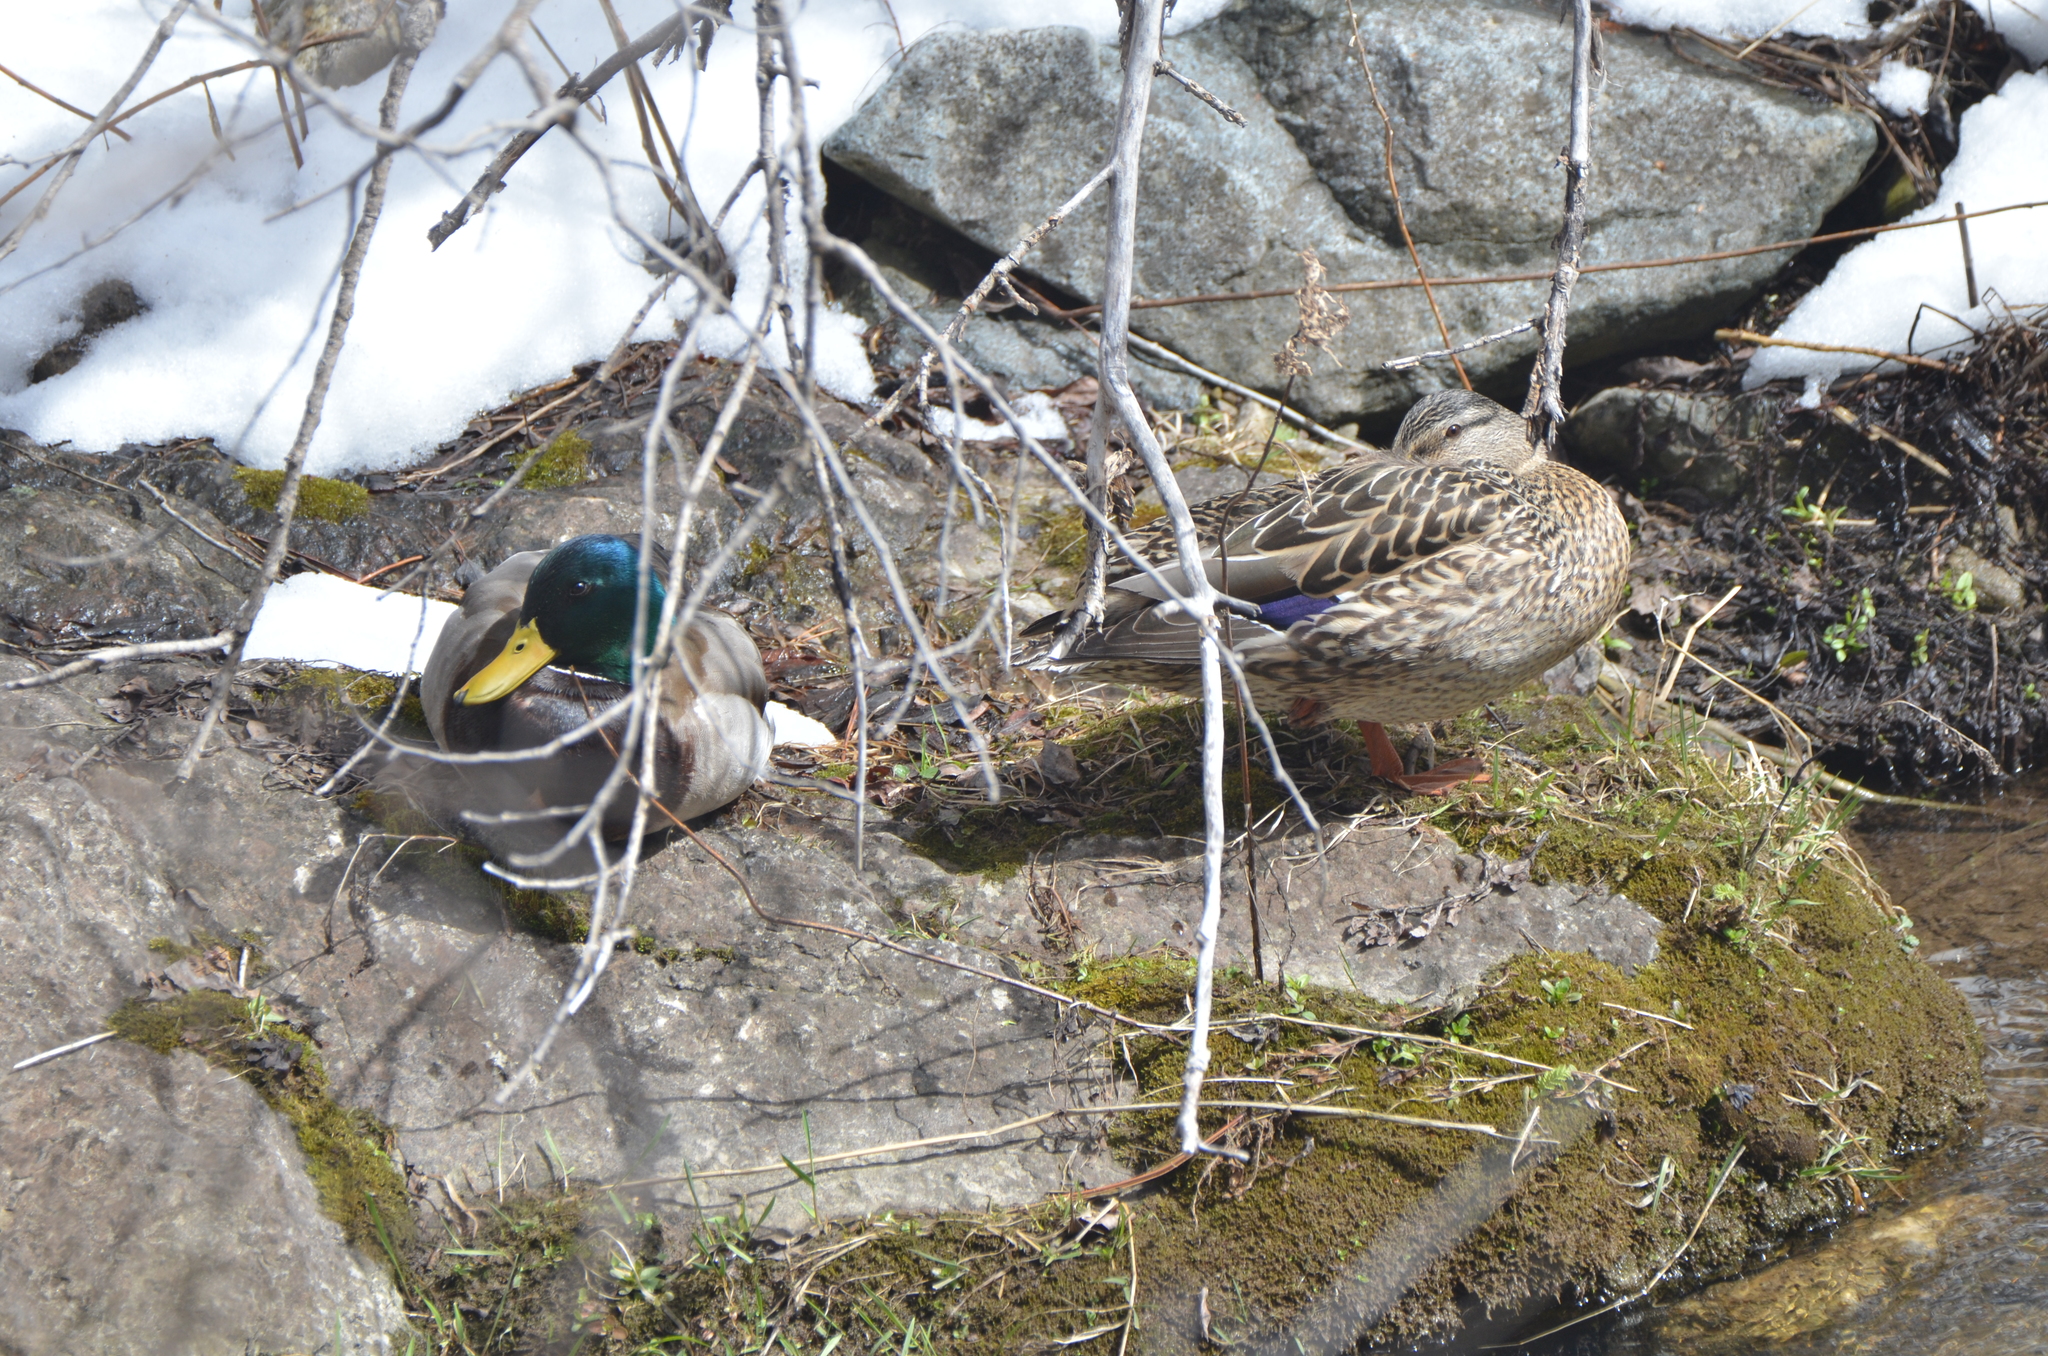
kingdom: Animalia
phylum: Chordata
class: Aves
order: Anseriformes
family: Anatidae
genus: Anas
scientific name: Anas platyrhynchos
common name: Mallard
